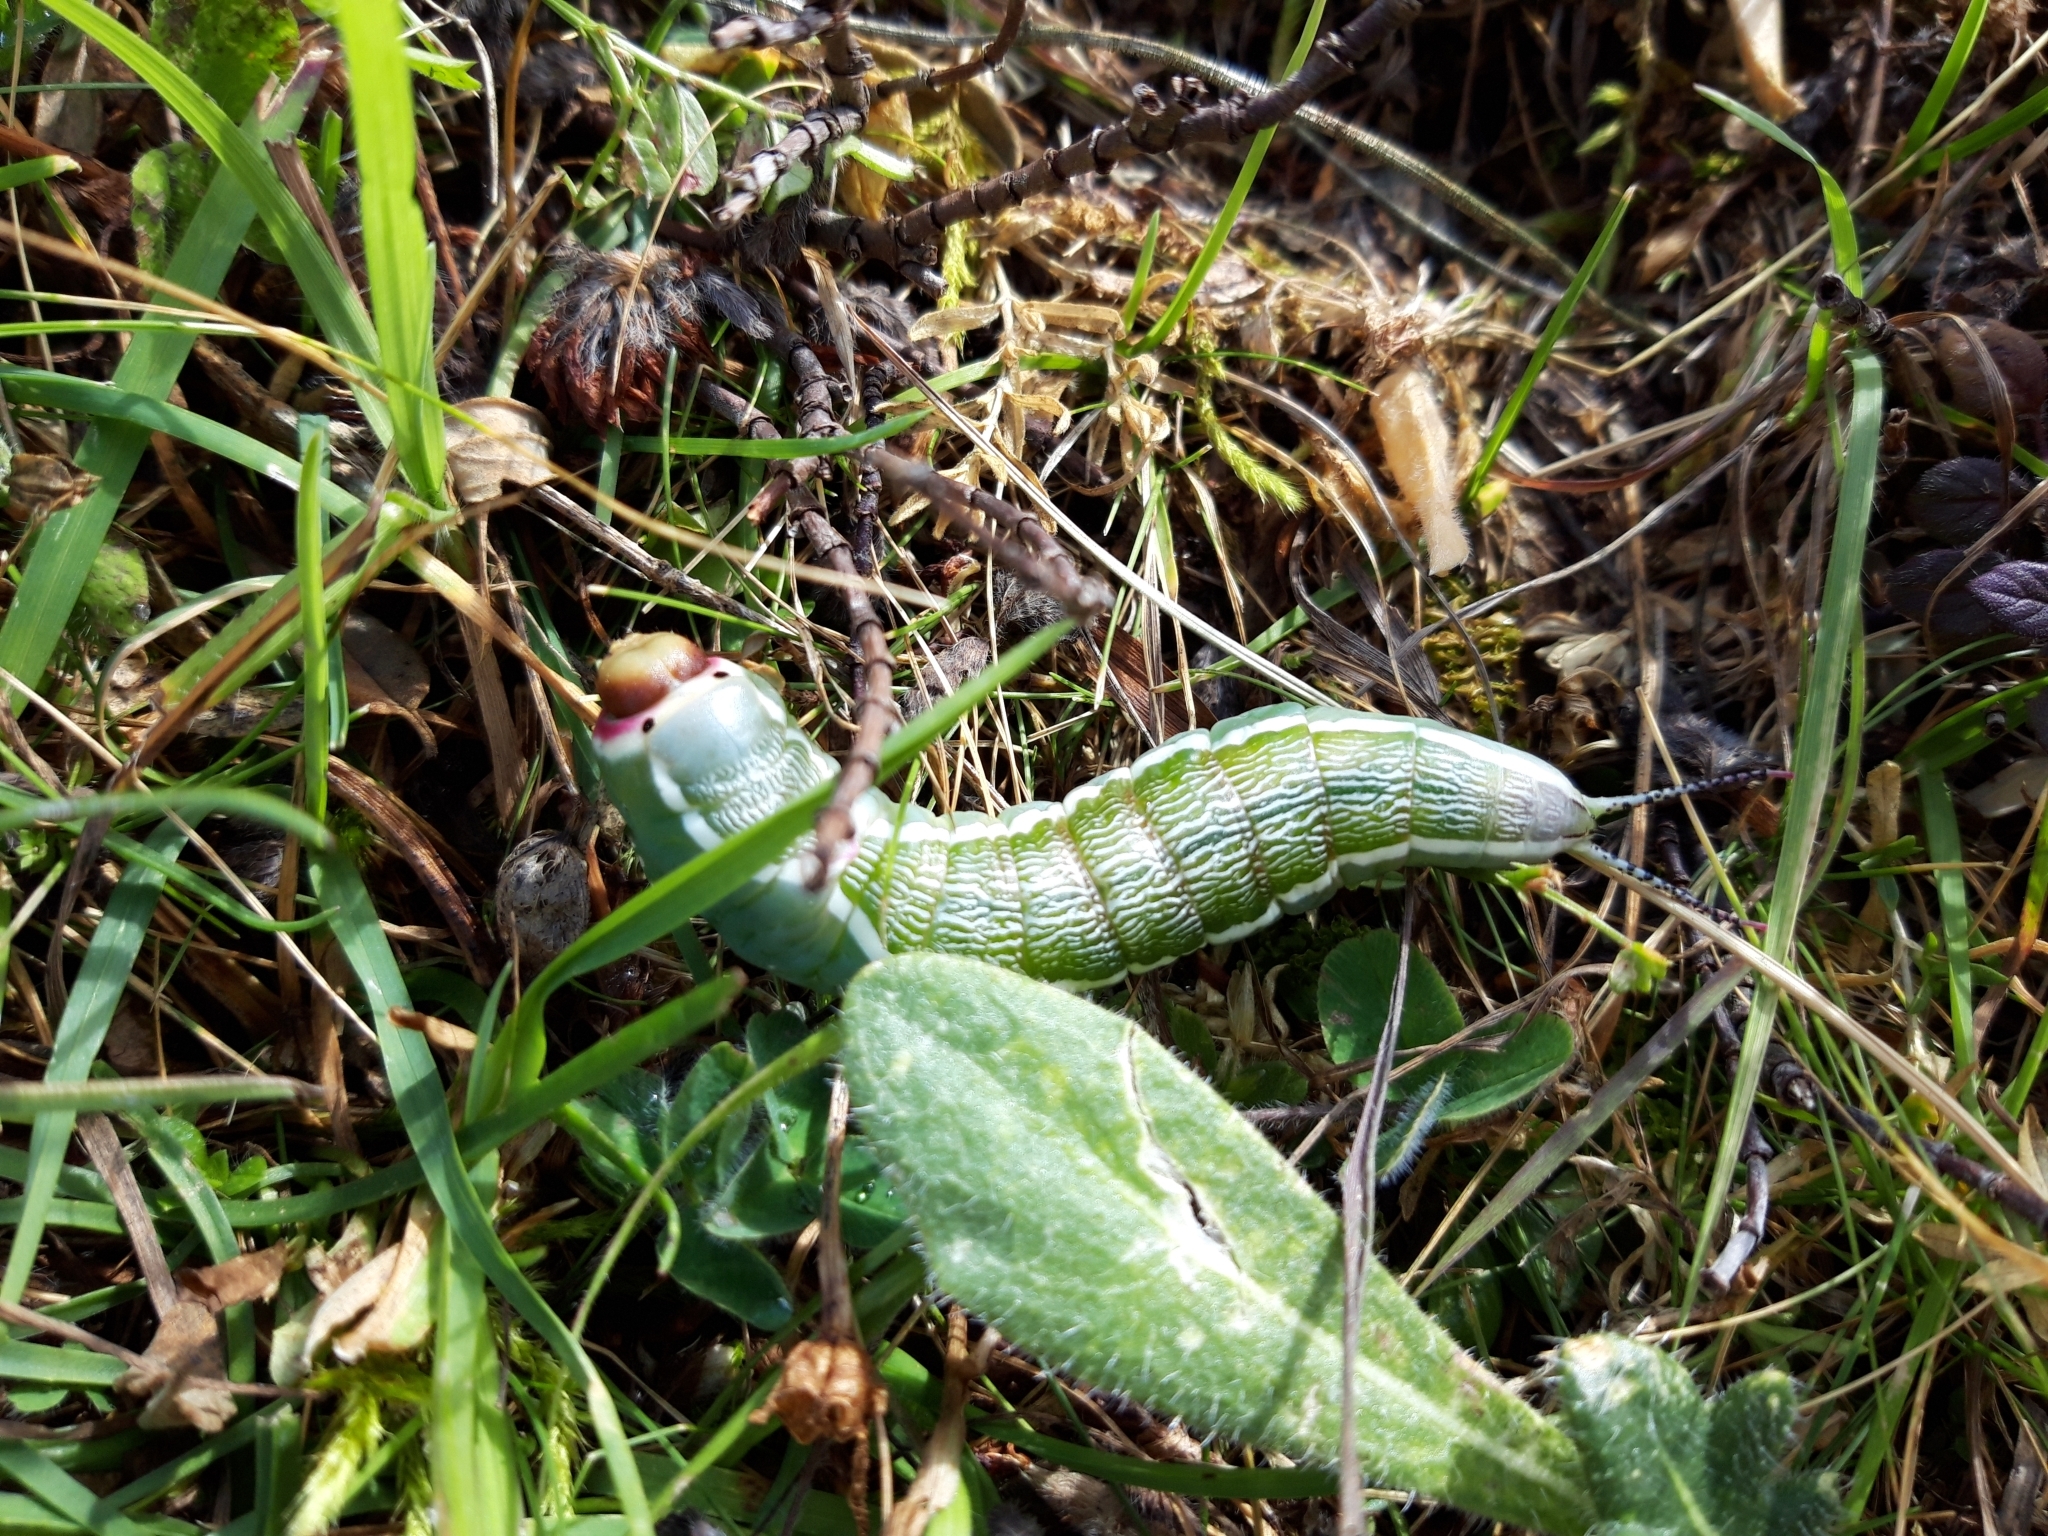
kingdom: Animalia
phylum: Arthropoda
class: Insecta
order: Lepidoptera
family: Notodontidae
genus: Cerura
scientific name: Cerura iberica
